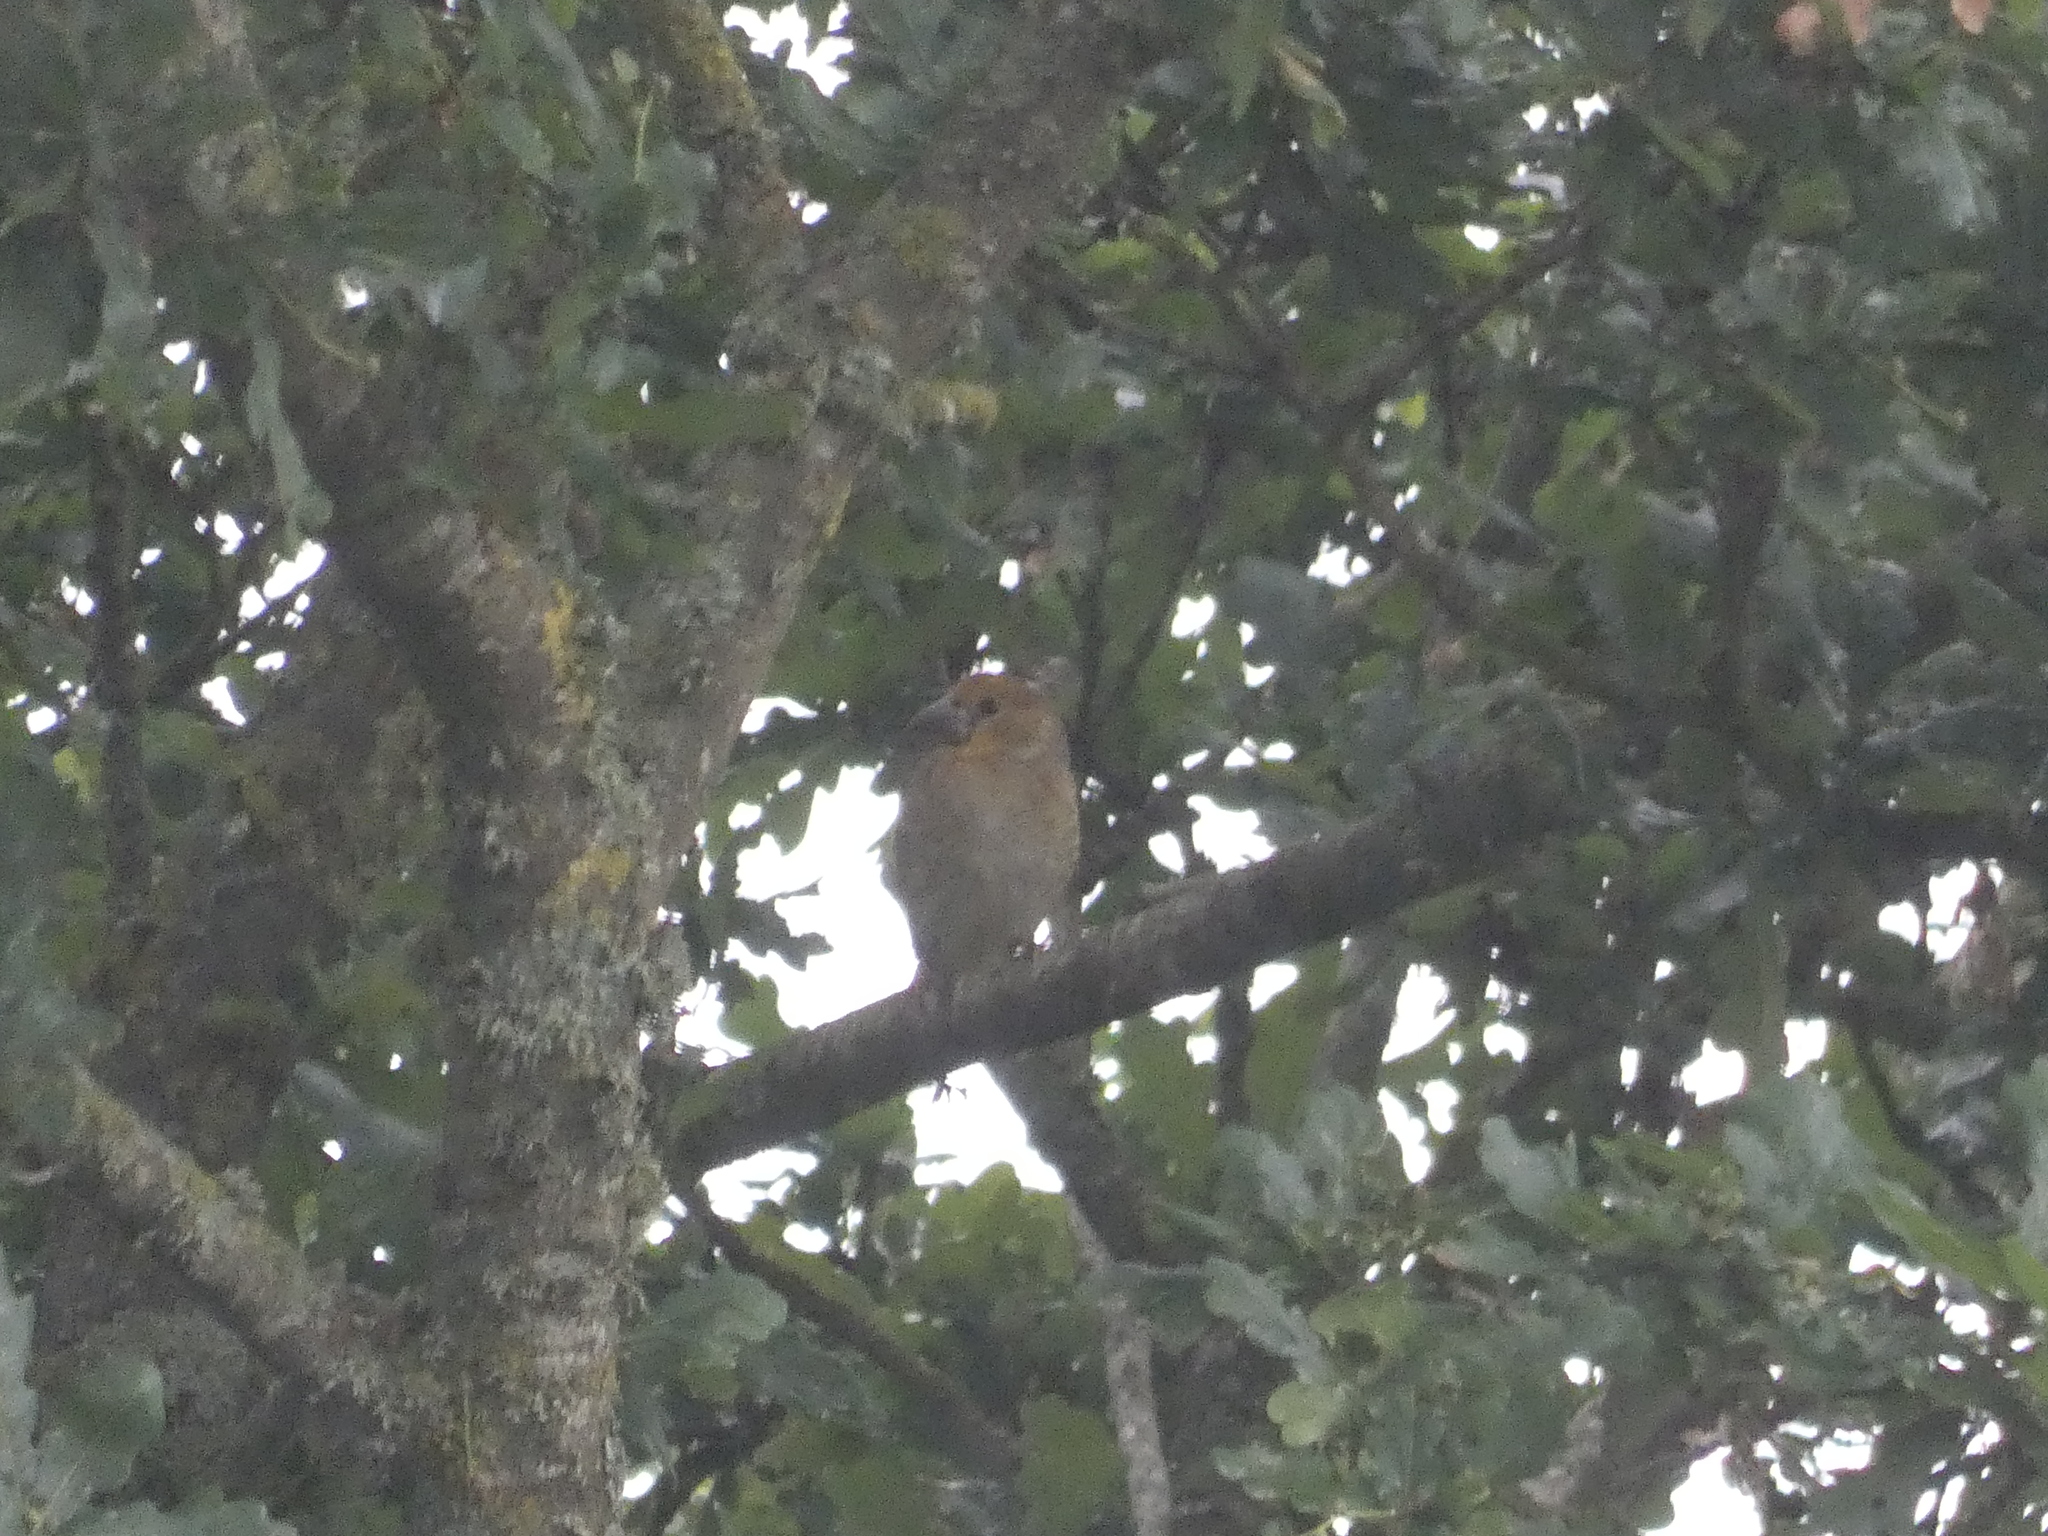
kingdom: Animalia
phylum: Chordata
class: Aves
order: Passeriformes
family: Fringillidae
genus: Coccothraustes
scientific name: Coccothraustes coccothraustes
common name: Hawfinch
